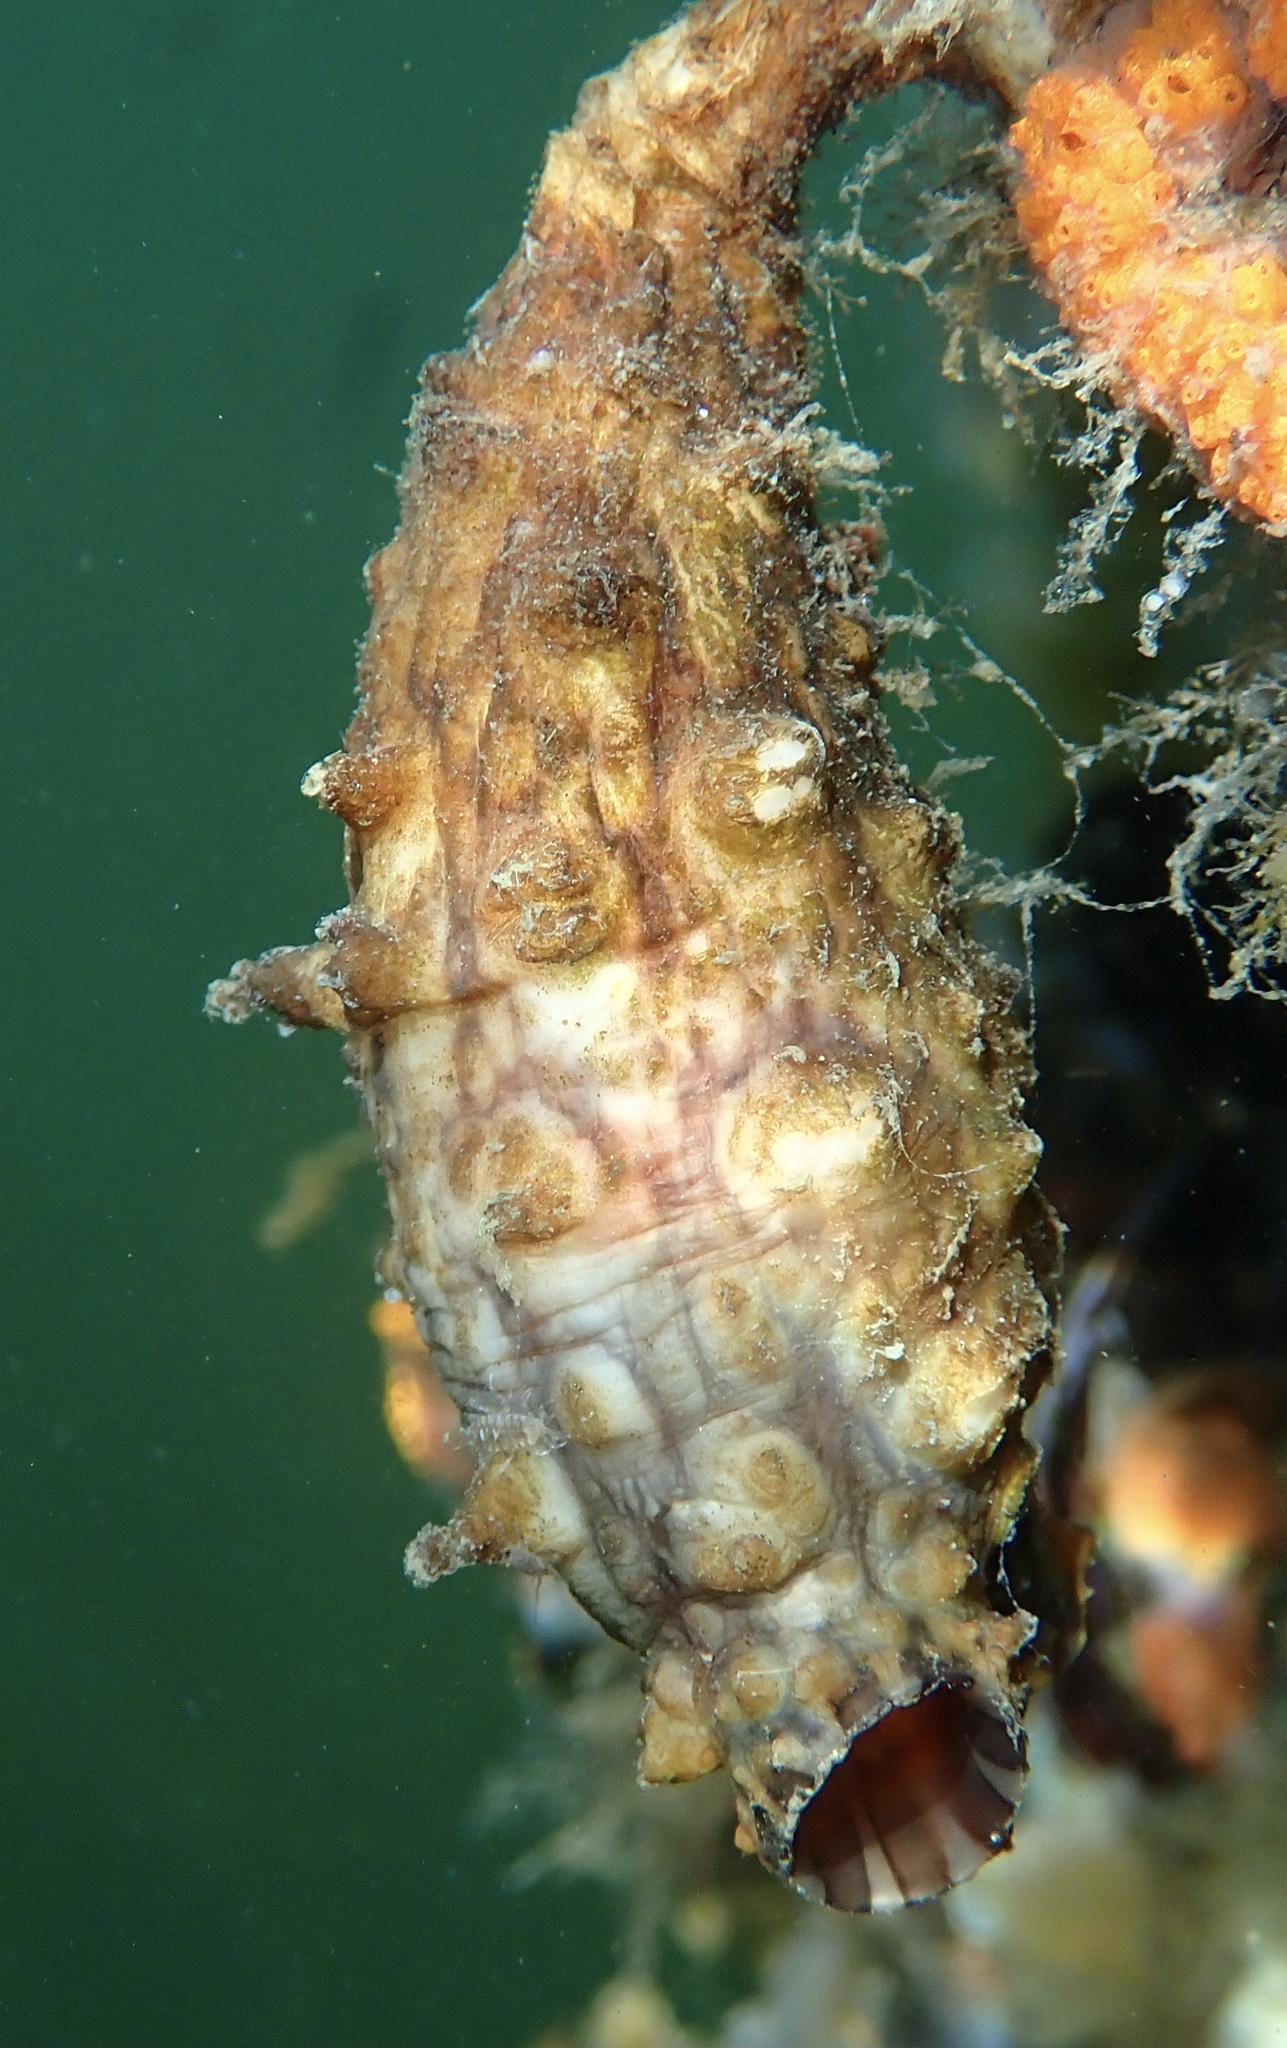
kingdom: Animalia
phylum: Chordata
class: Ascidiacea
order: Stolidobranchia
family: Styelidae
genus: Styela
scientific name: Styela clava
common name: Leathery sea squirt
